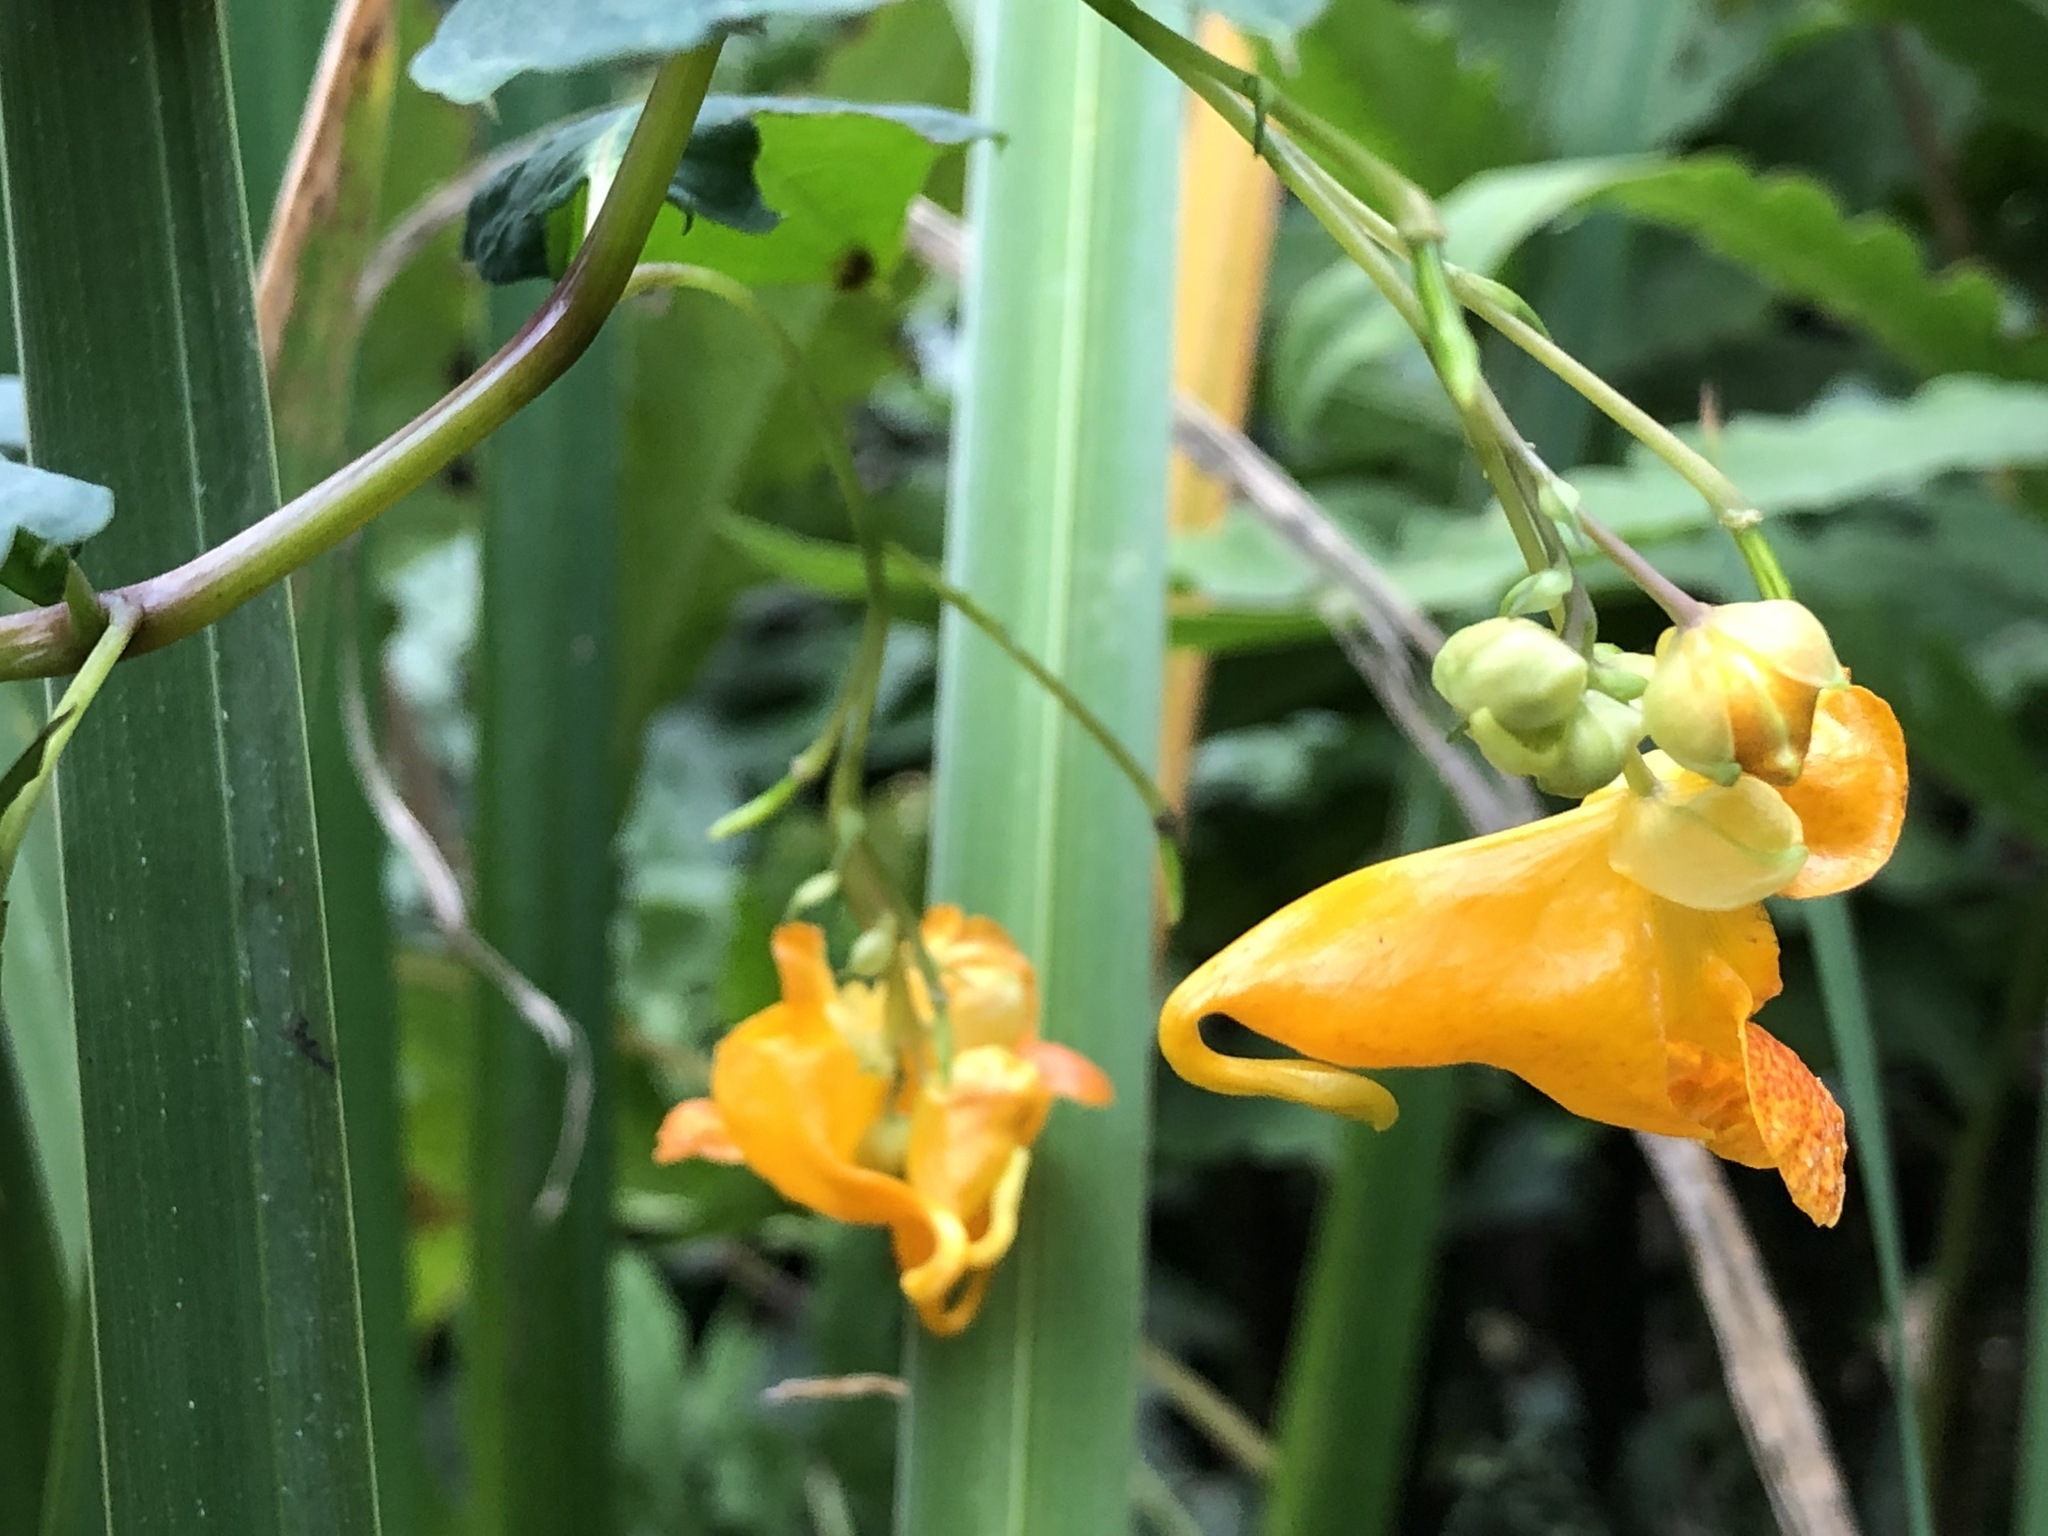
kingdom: Plantae
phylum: Tracheophyta
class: Magnoliopsida
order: Ericales
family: Balsaminaceae
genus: Impatiens
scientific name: Impatiens capensis
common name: Orange balsam
